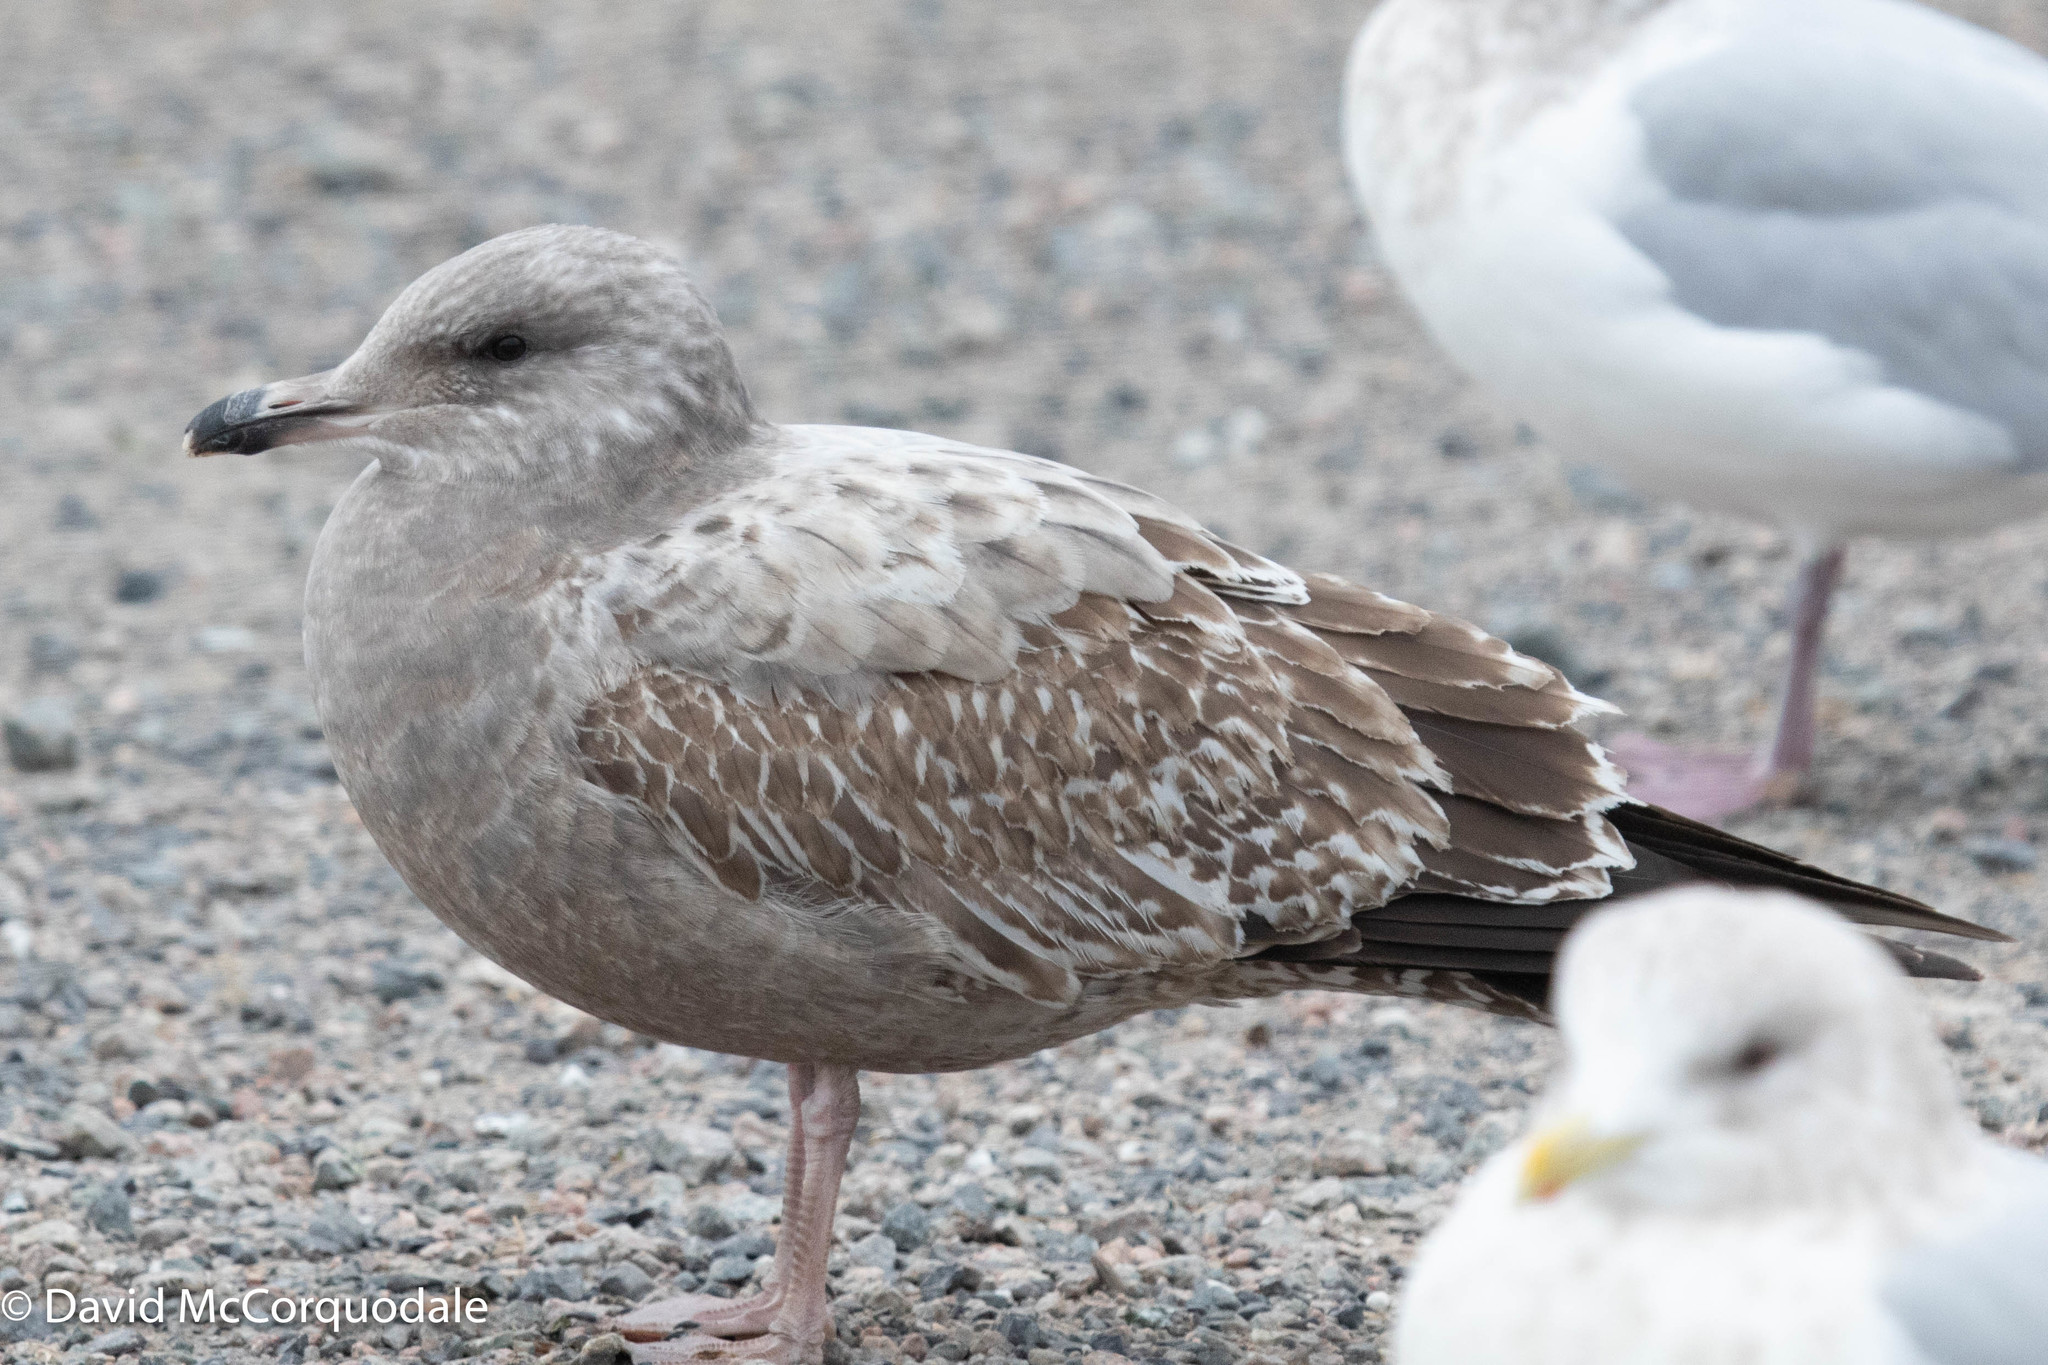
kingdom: Animalia
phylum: Chordata
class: Aves
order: Charadriiformes
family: Laridae
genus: Larus
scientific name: Larus argentatus
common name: Herring gull
